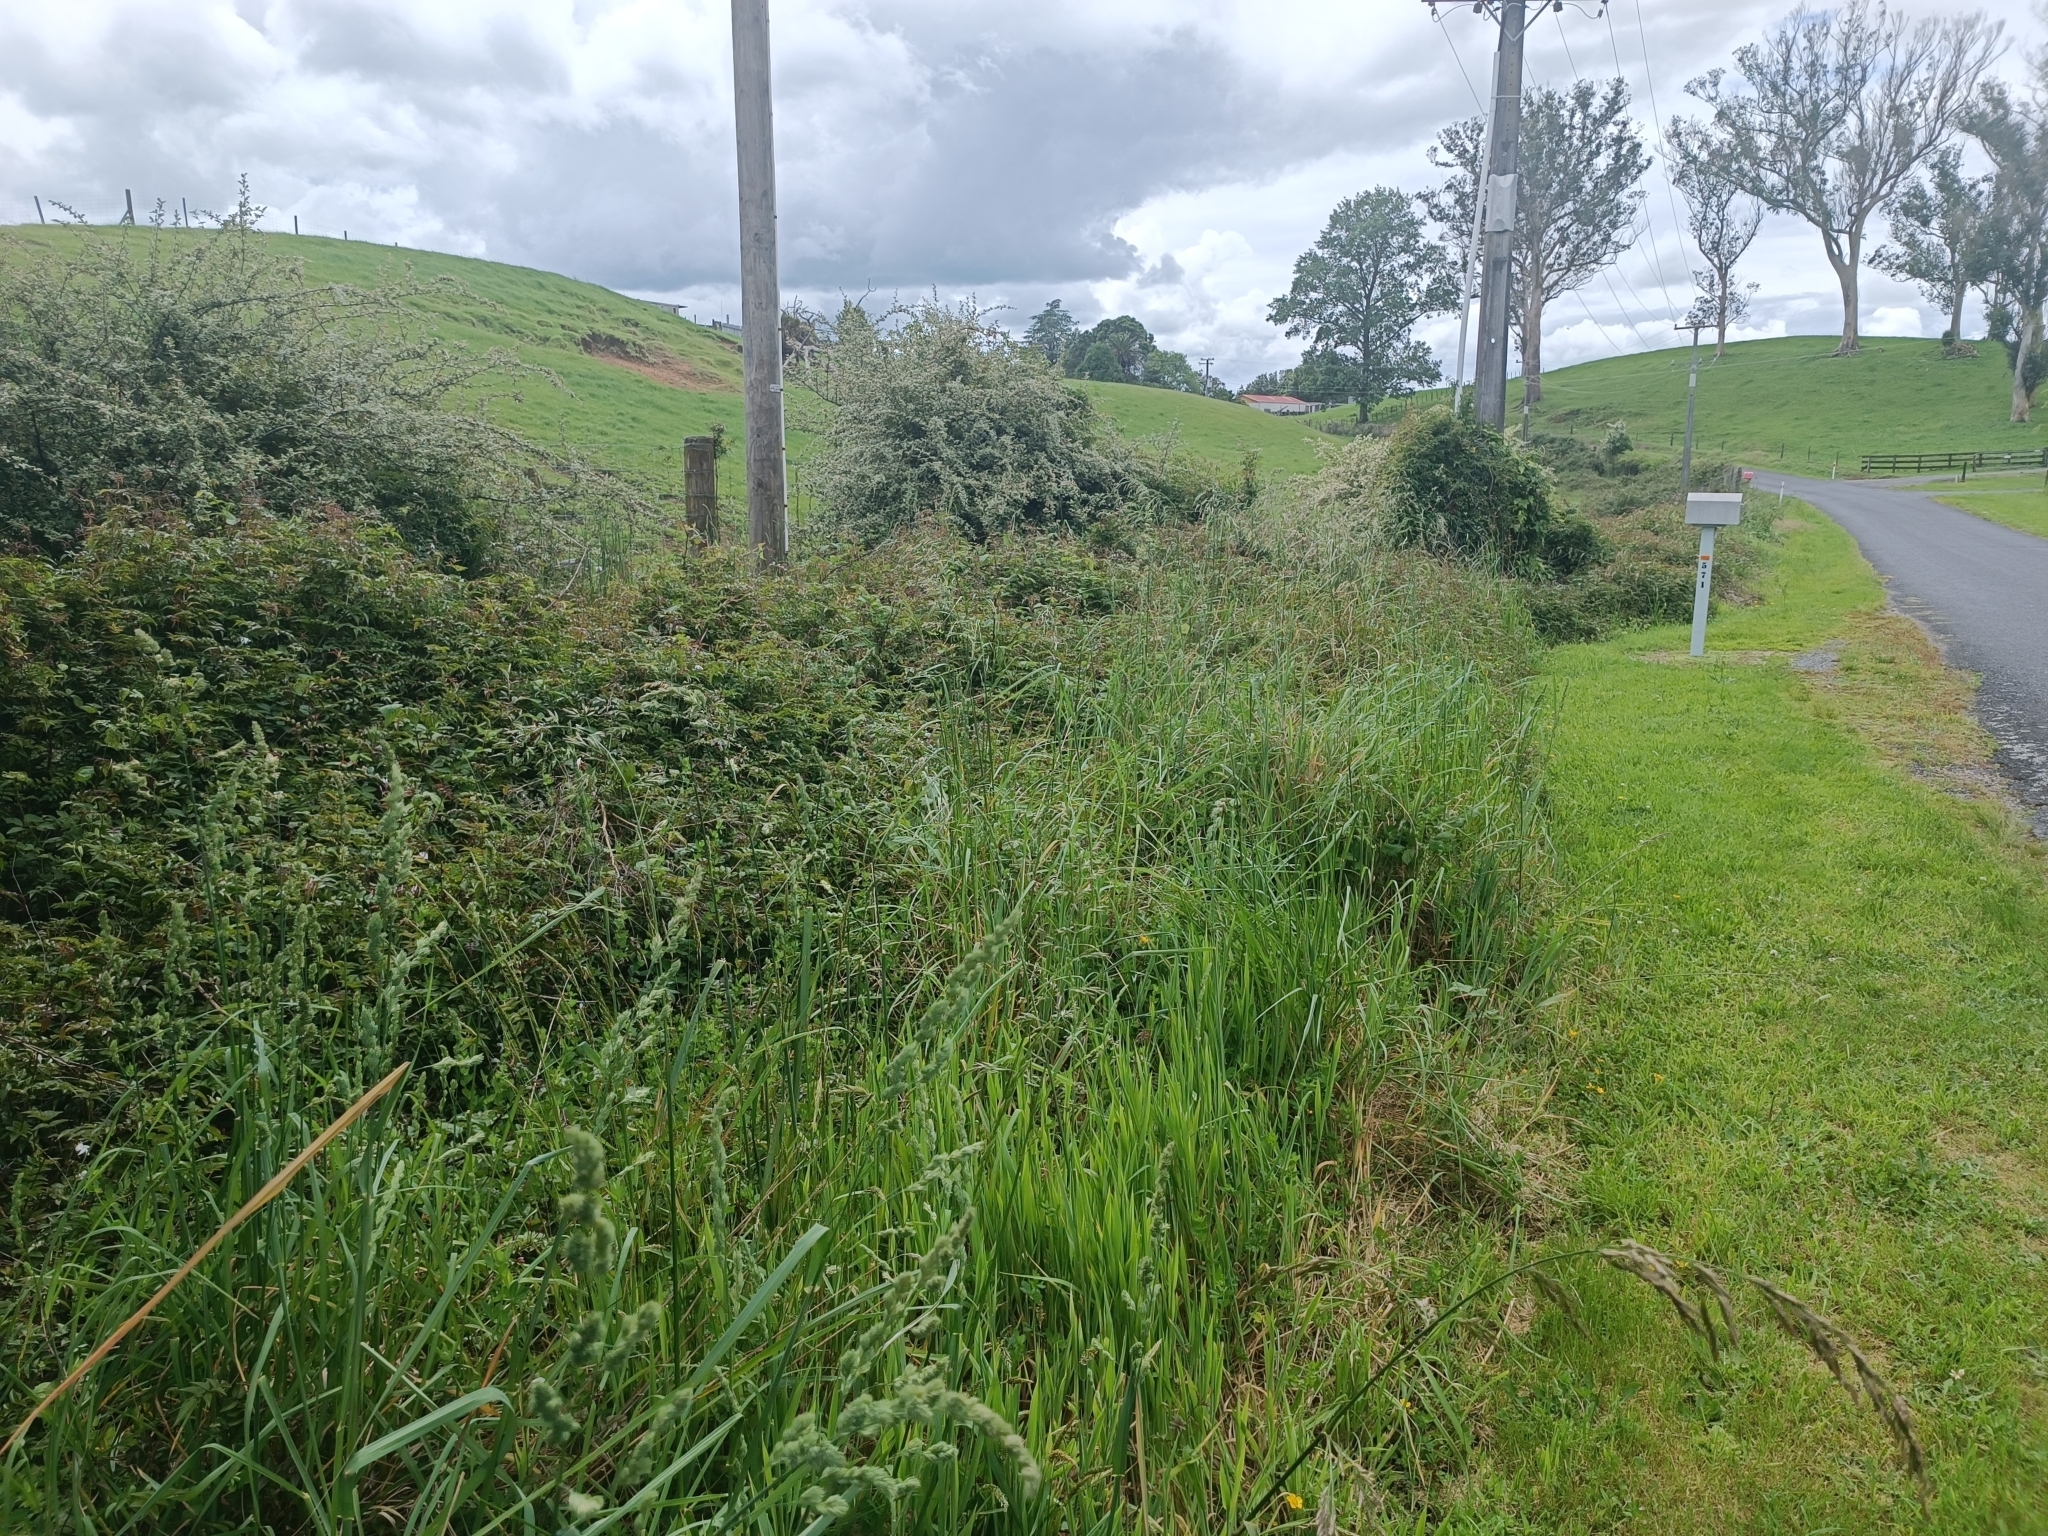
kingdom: Plantae
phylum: Tracheophyta
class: Magnoliopsida
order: Lamiales
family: Oleaceae
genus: Jasminum
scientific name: Jasminum polyanthum
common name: Pink jasmine
